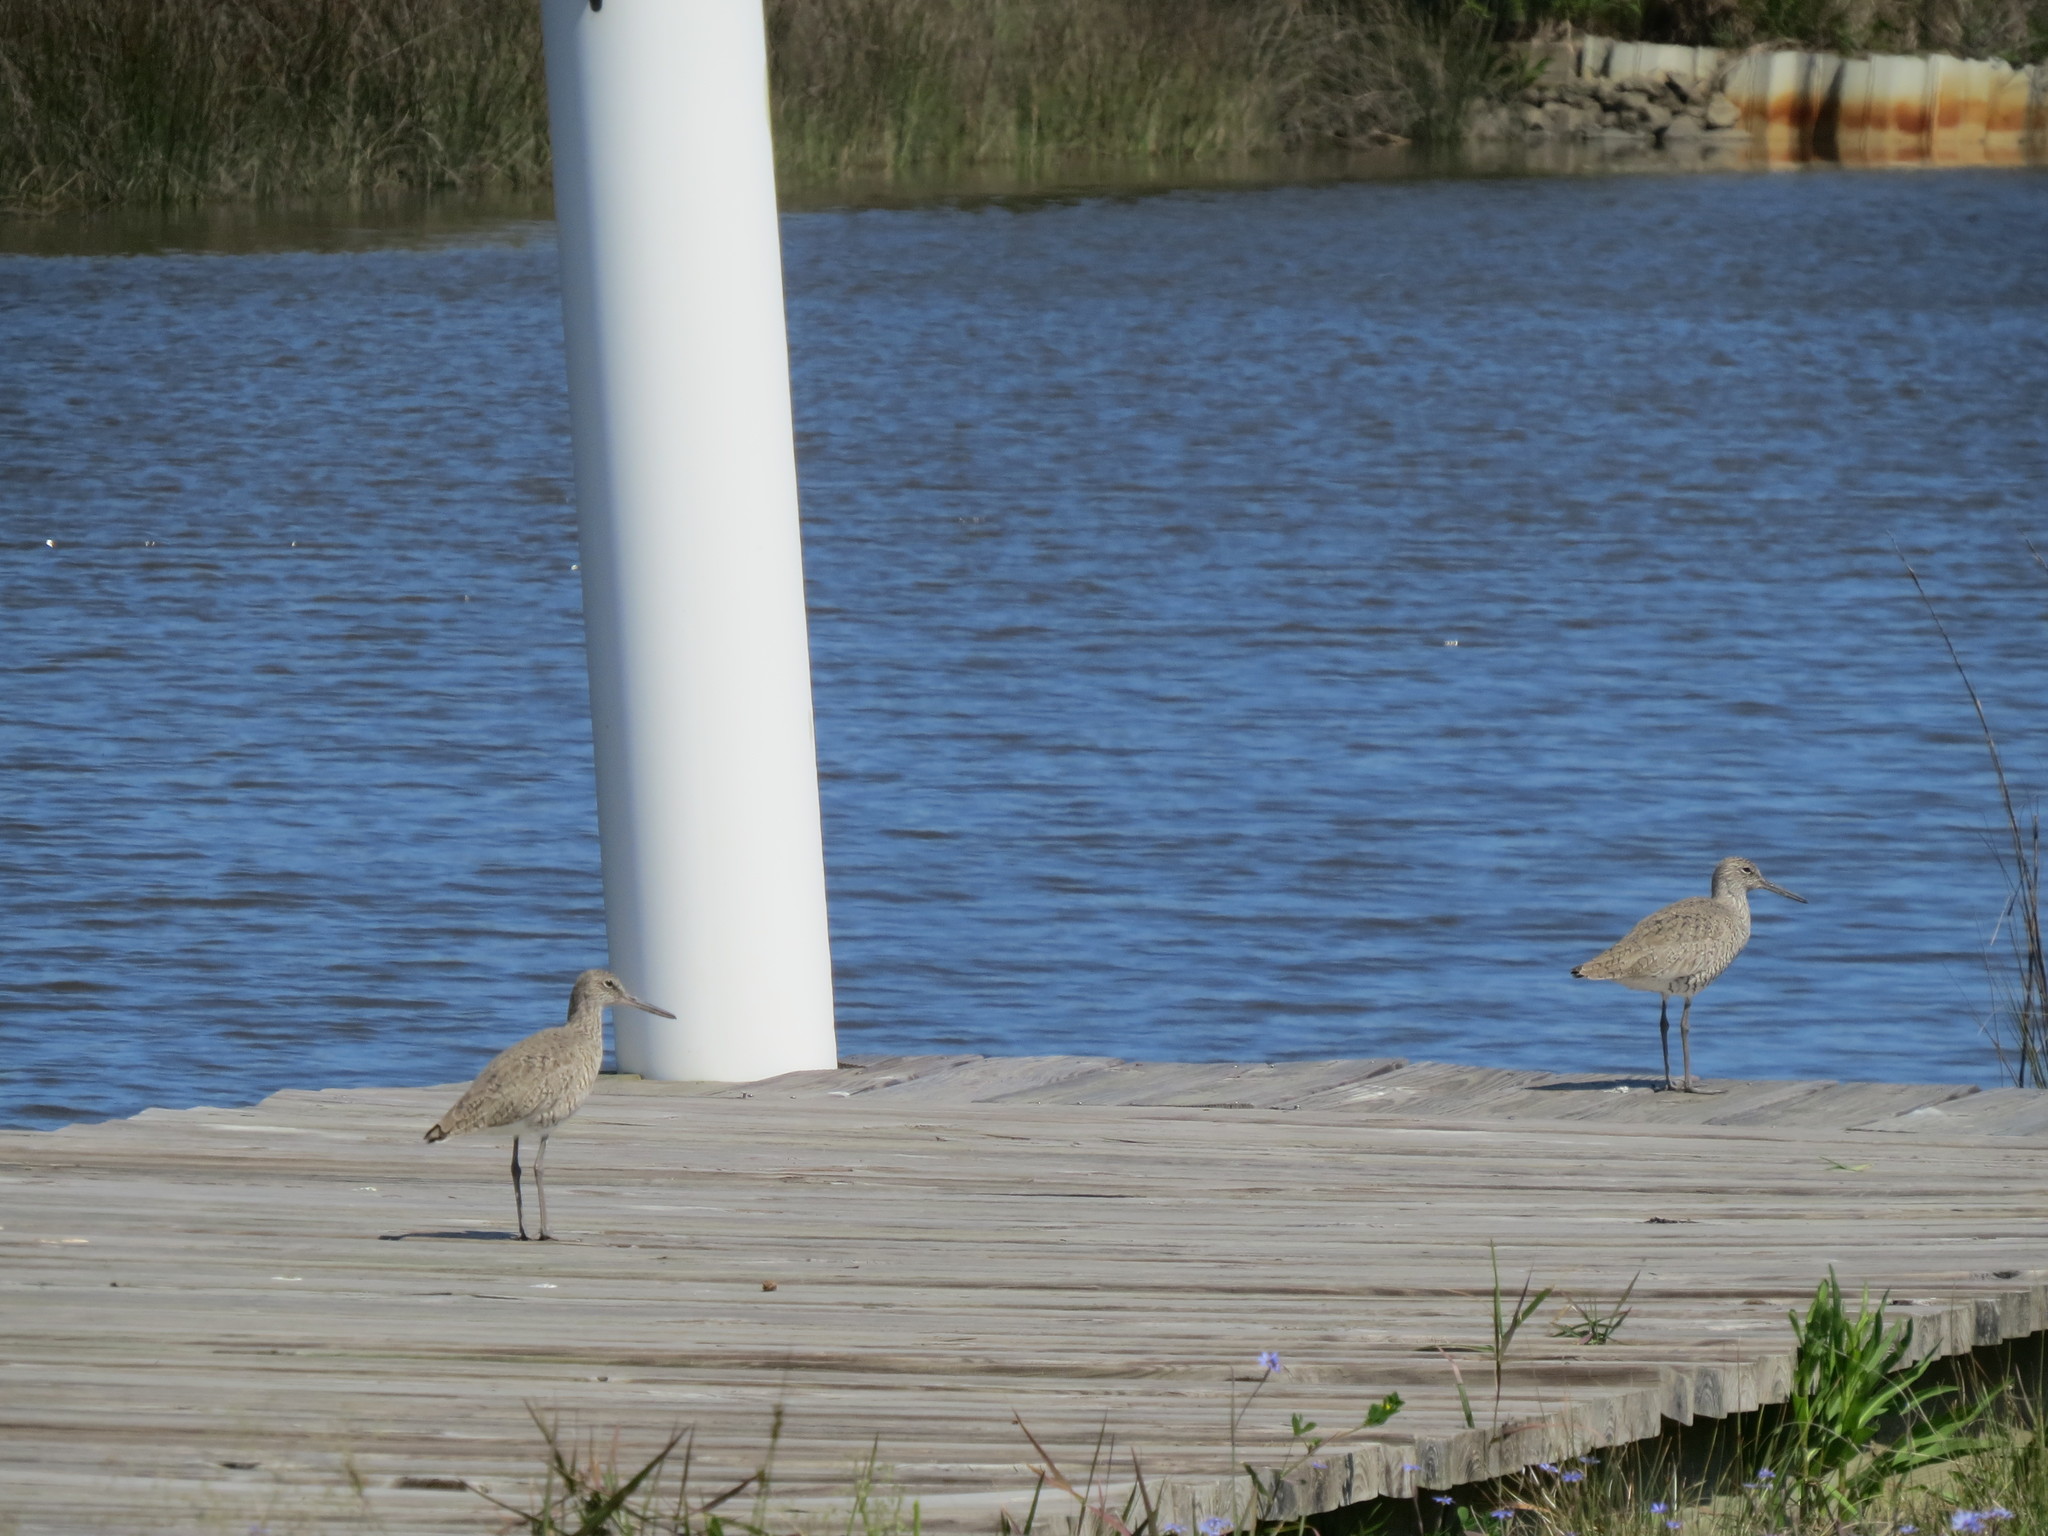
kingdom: Animalia
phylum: Chordata
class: Aves
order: Charadriiformes
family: Scolopacidae
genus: Tringa
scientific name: Tringa semipalmata
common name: Willet
